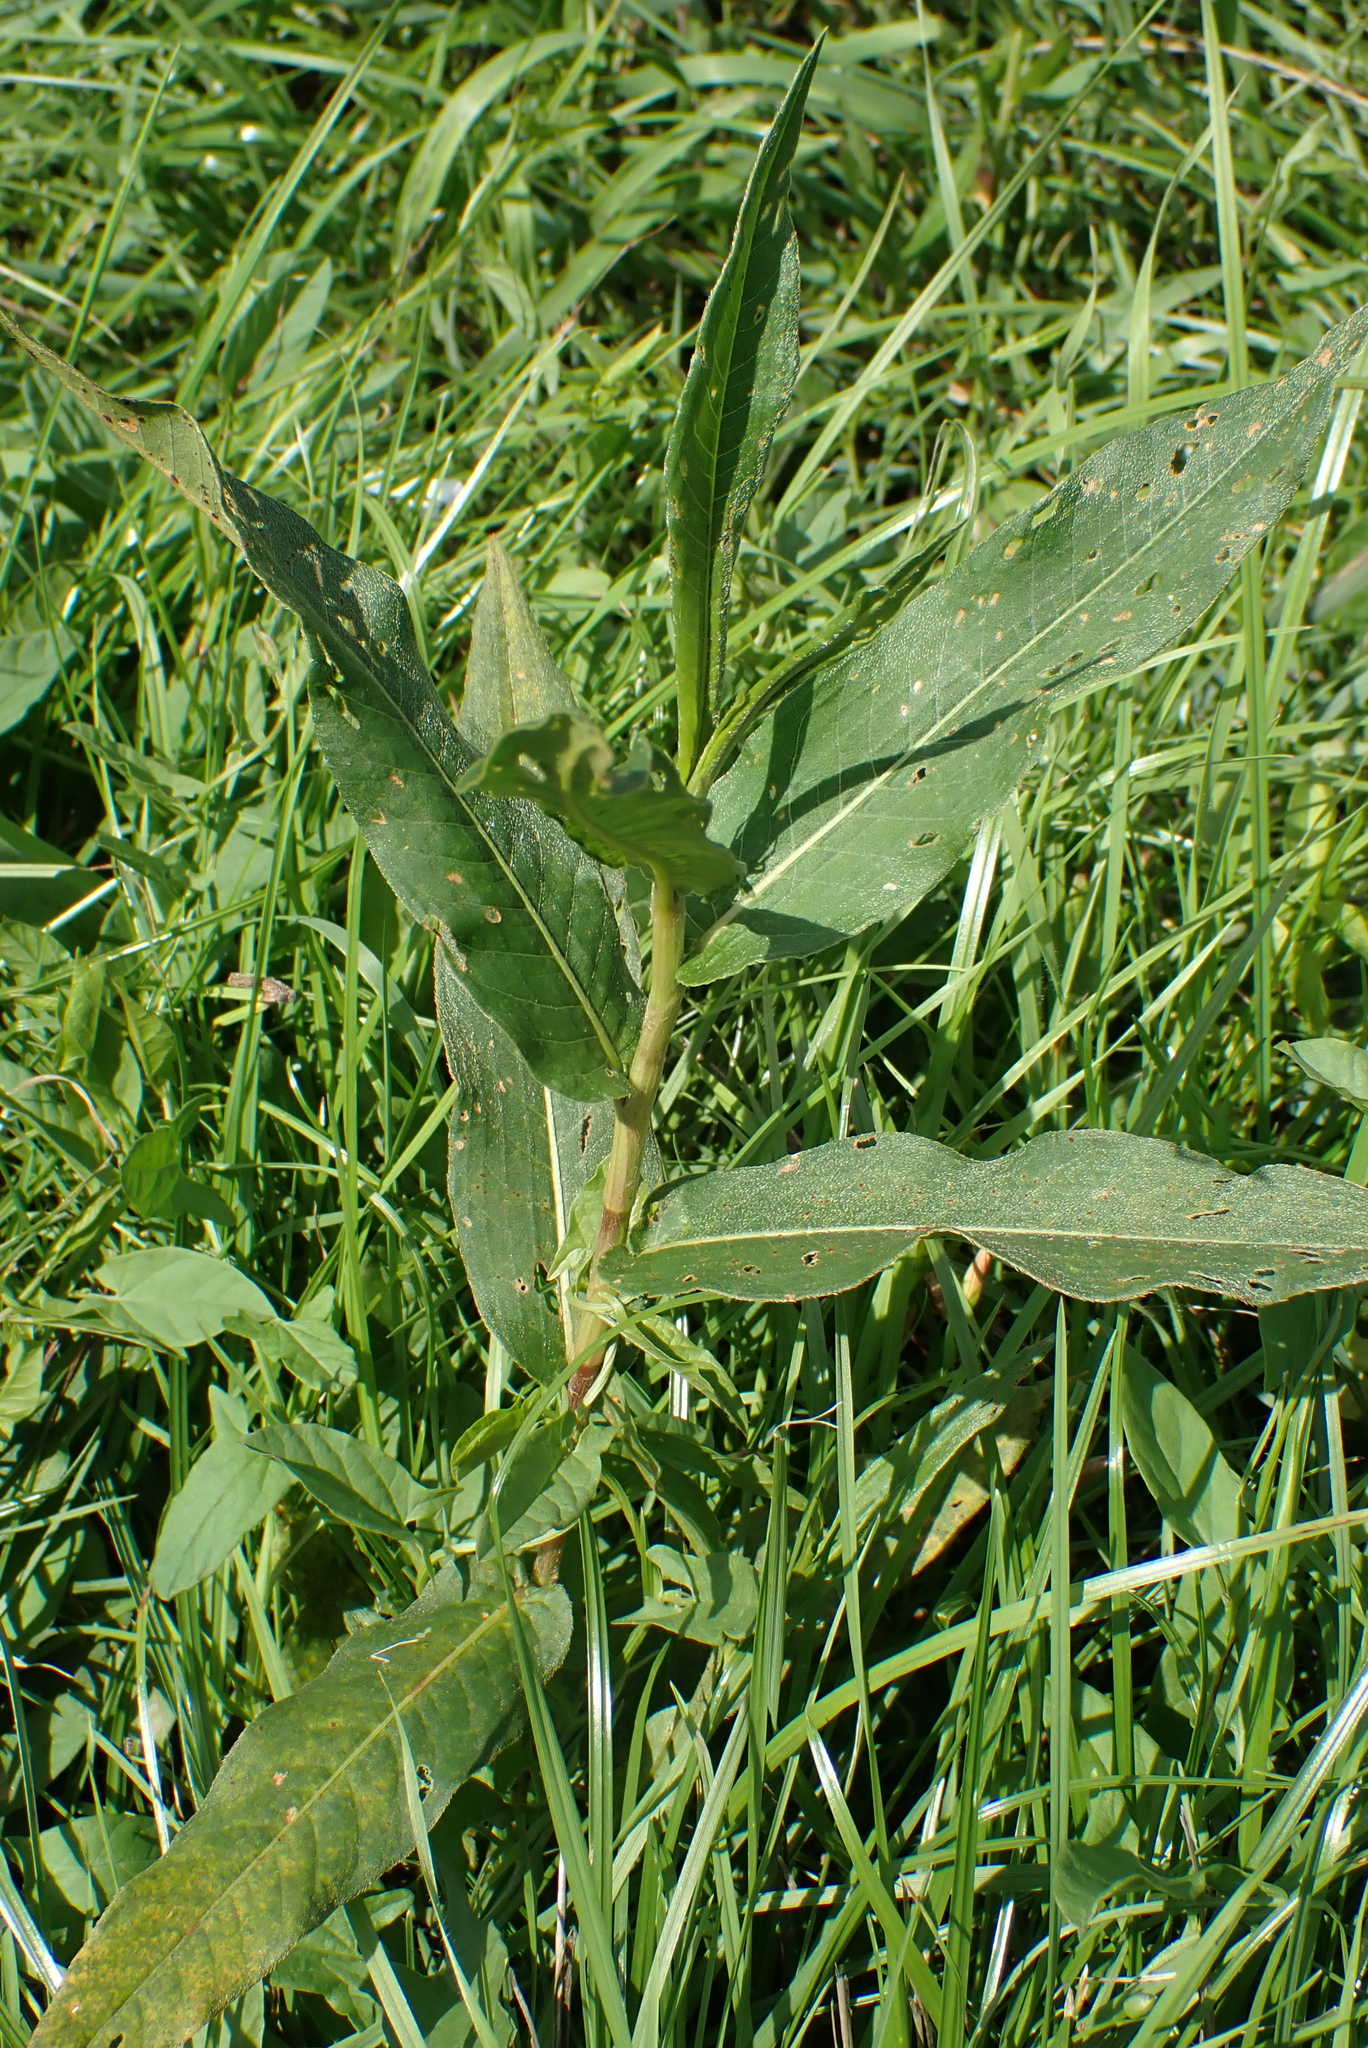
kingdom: Plantae
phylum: Tracheophyta
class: Magnoliopsida
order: Caryophyllales
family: Polygonaceae
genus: Persicaria
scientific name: Persicaria amphibia
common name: Amphibious bistort
